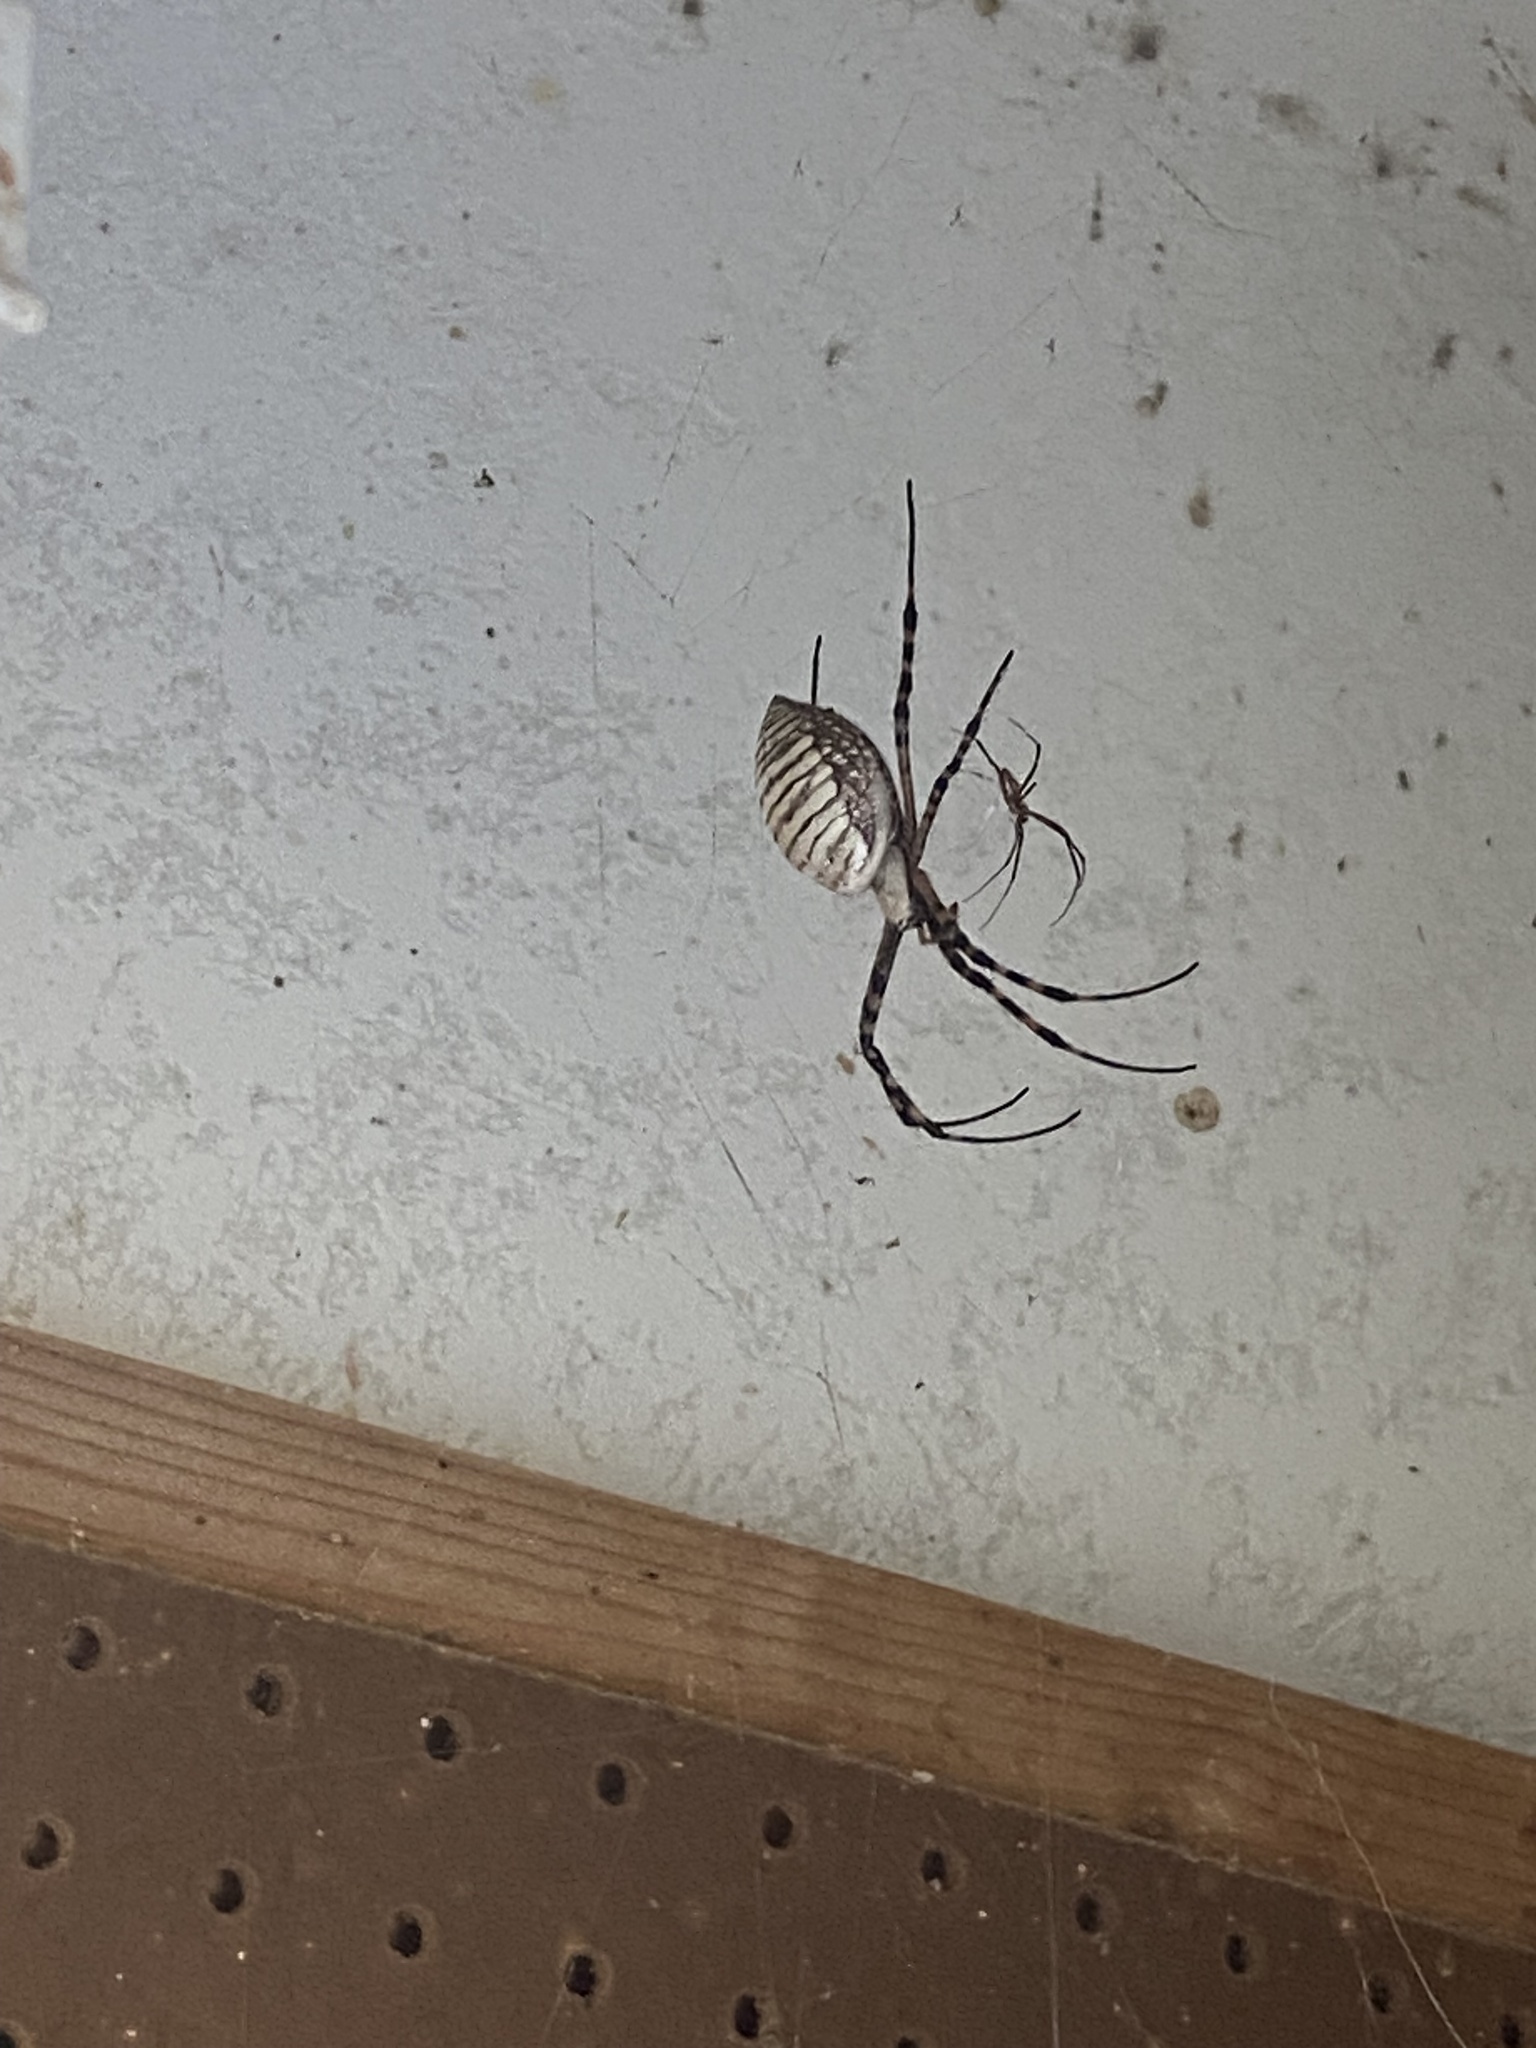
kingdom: Animalia
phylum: Arthropoda
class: Arachnida
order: Araneae
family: Araneidae
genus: Argiope
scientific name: Argiope trifasciata
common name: Banded garden spider
